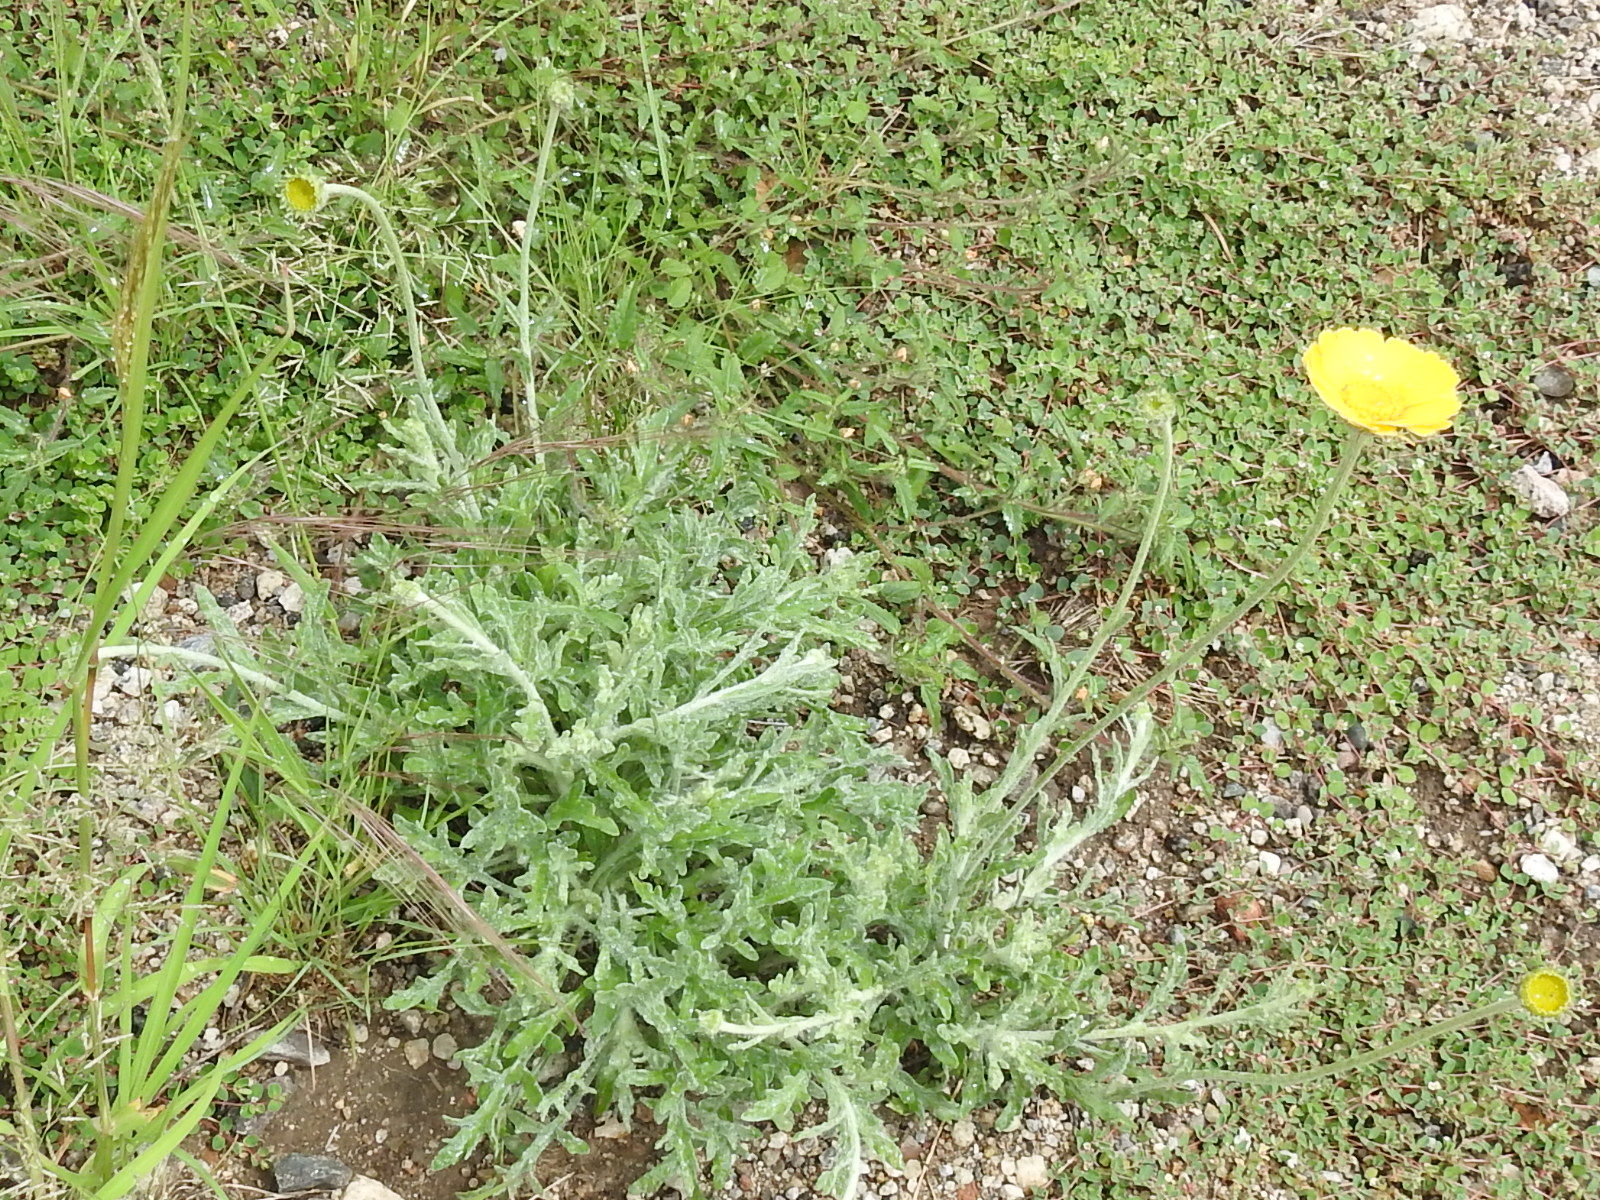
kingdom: Plantae
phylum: Tracheophyta
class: Magnoliopsida
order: Asterales
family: Asteraceae
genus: Baileya
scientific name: Baileya multiradiata
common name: Desert-marigold
